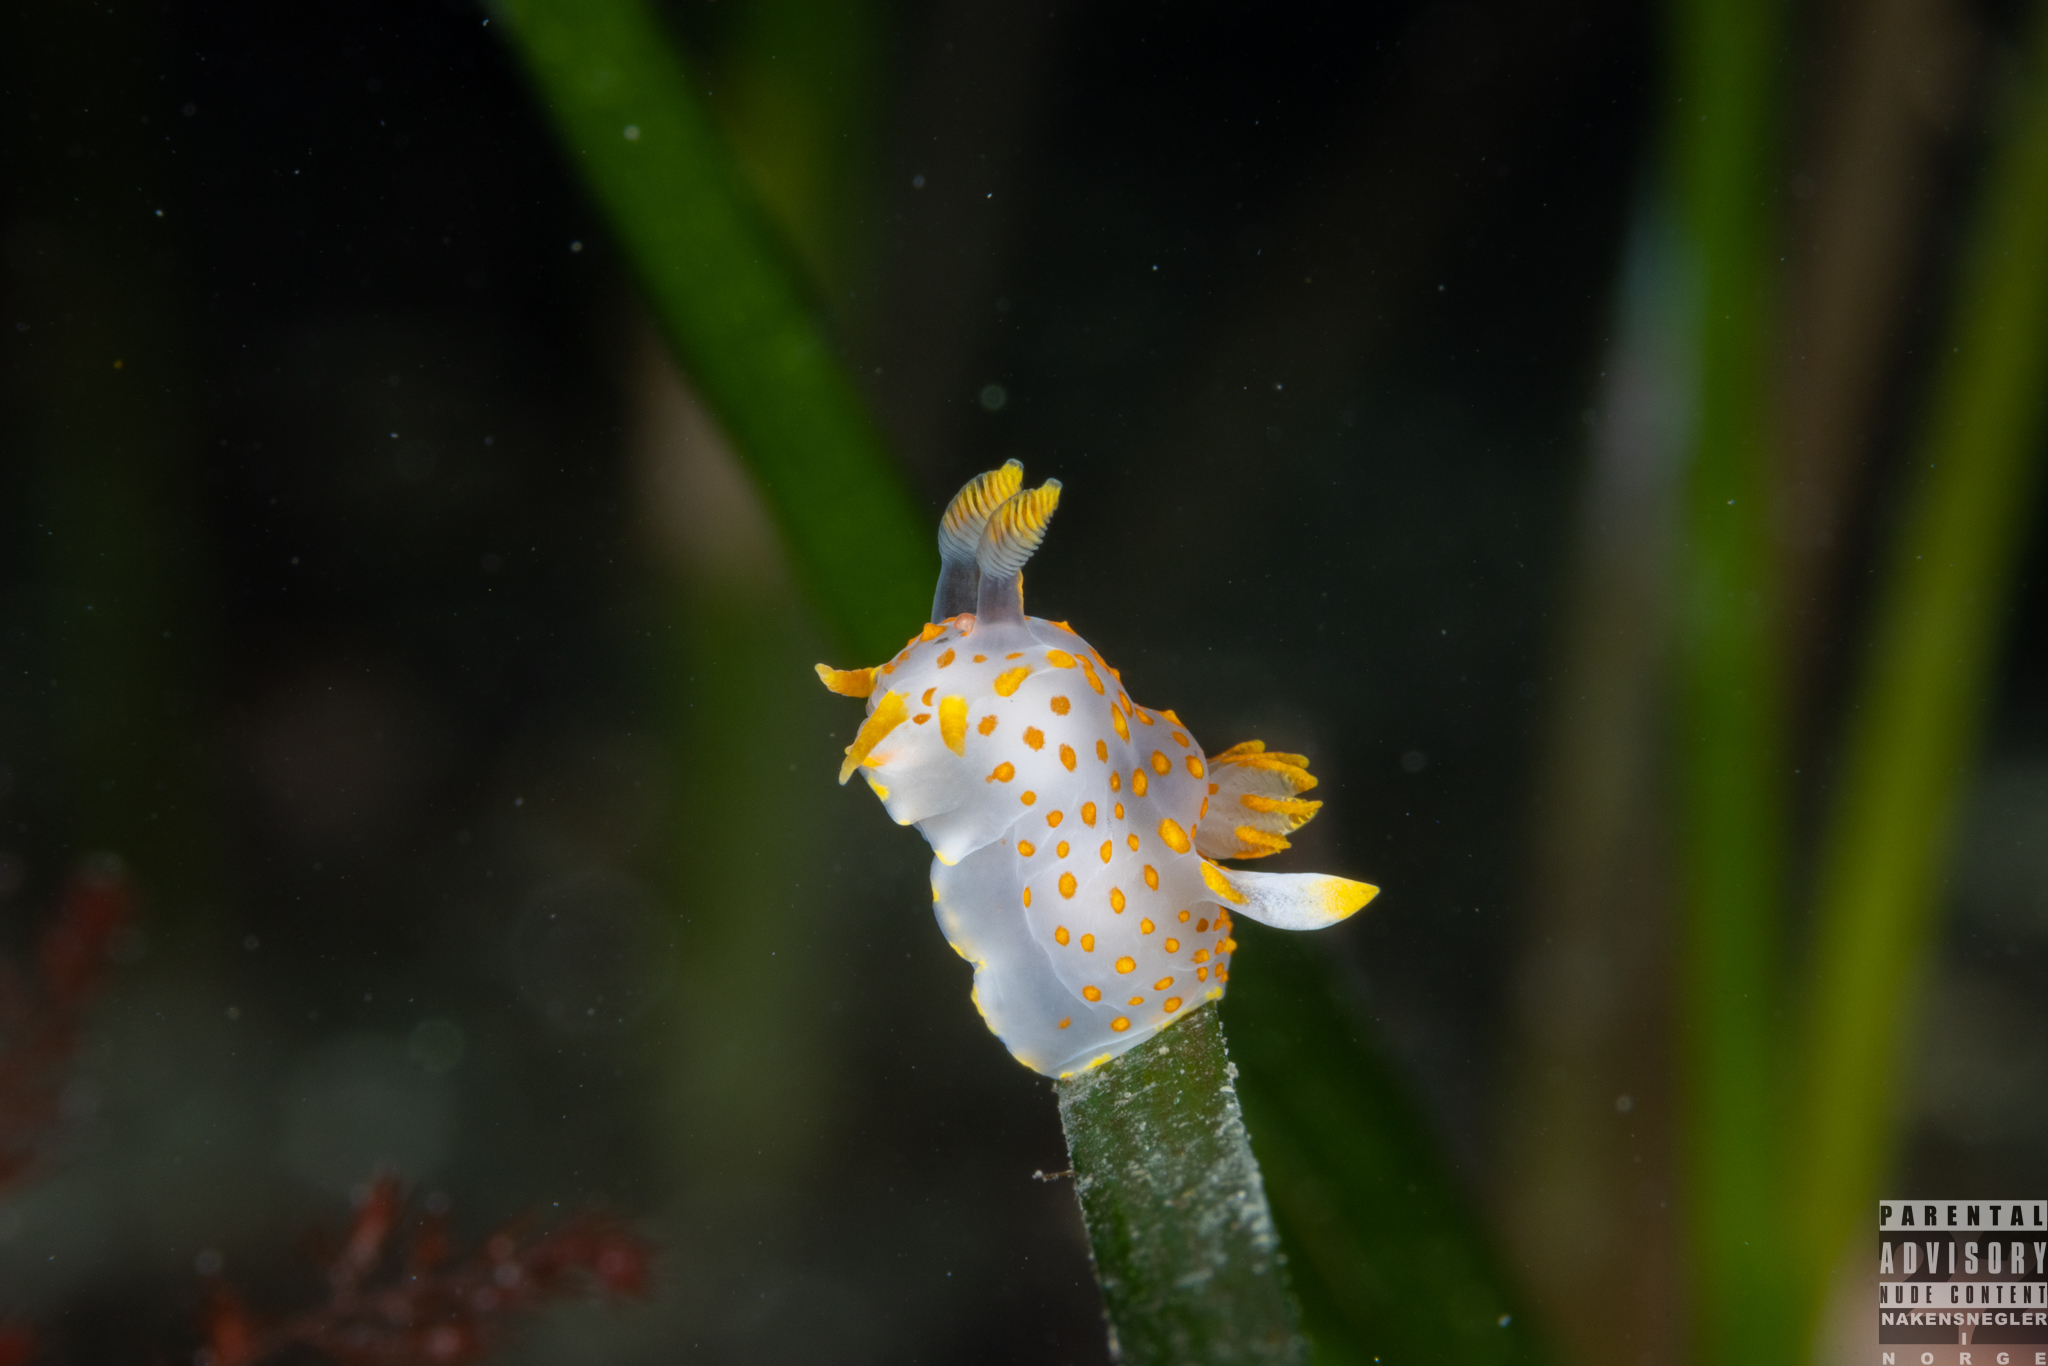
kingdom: Animalia
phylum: Mollusca
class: Gastropoda
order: Nudibranchia
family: Polyceridae
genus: Polycera
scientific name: Polycera quadrilineata
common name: Four-striped polycera
